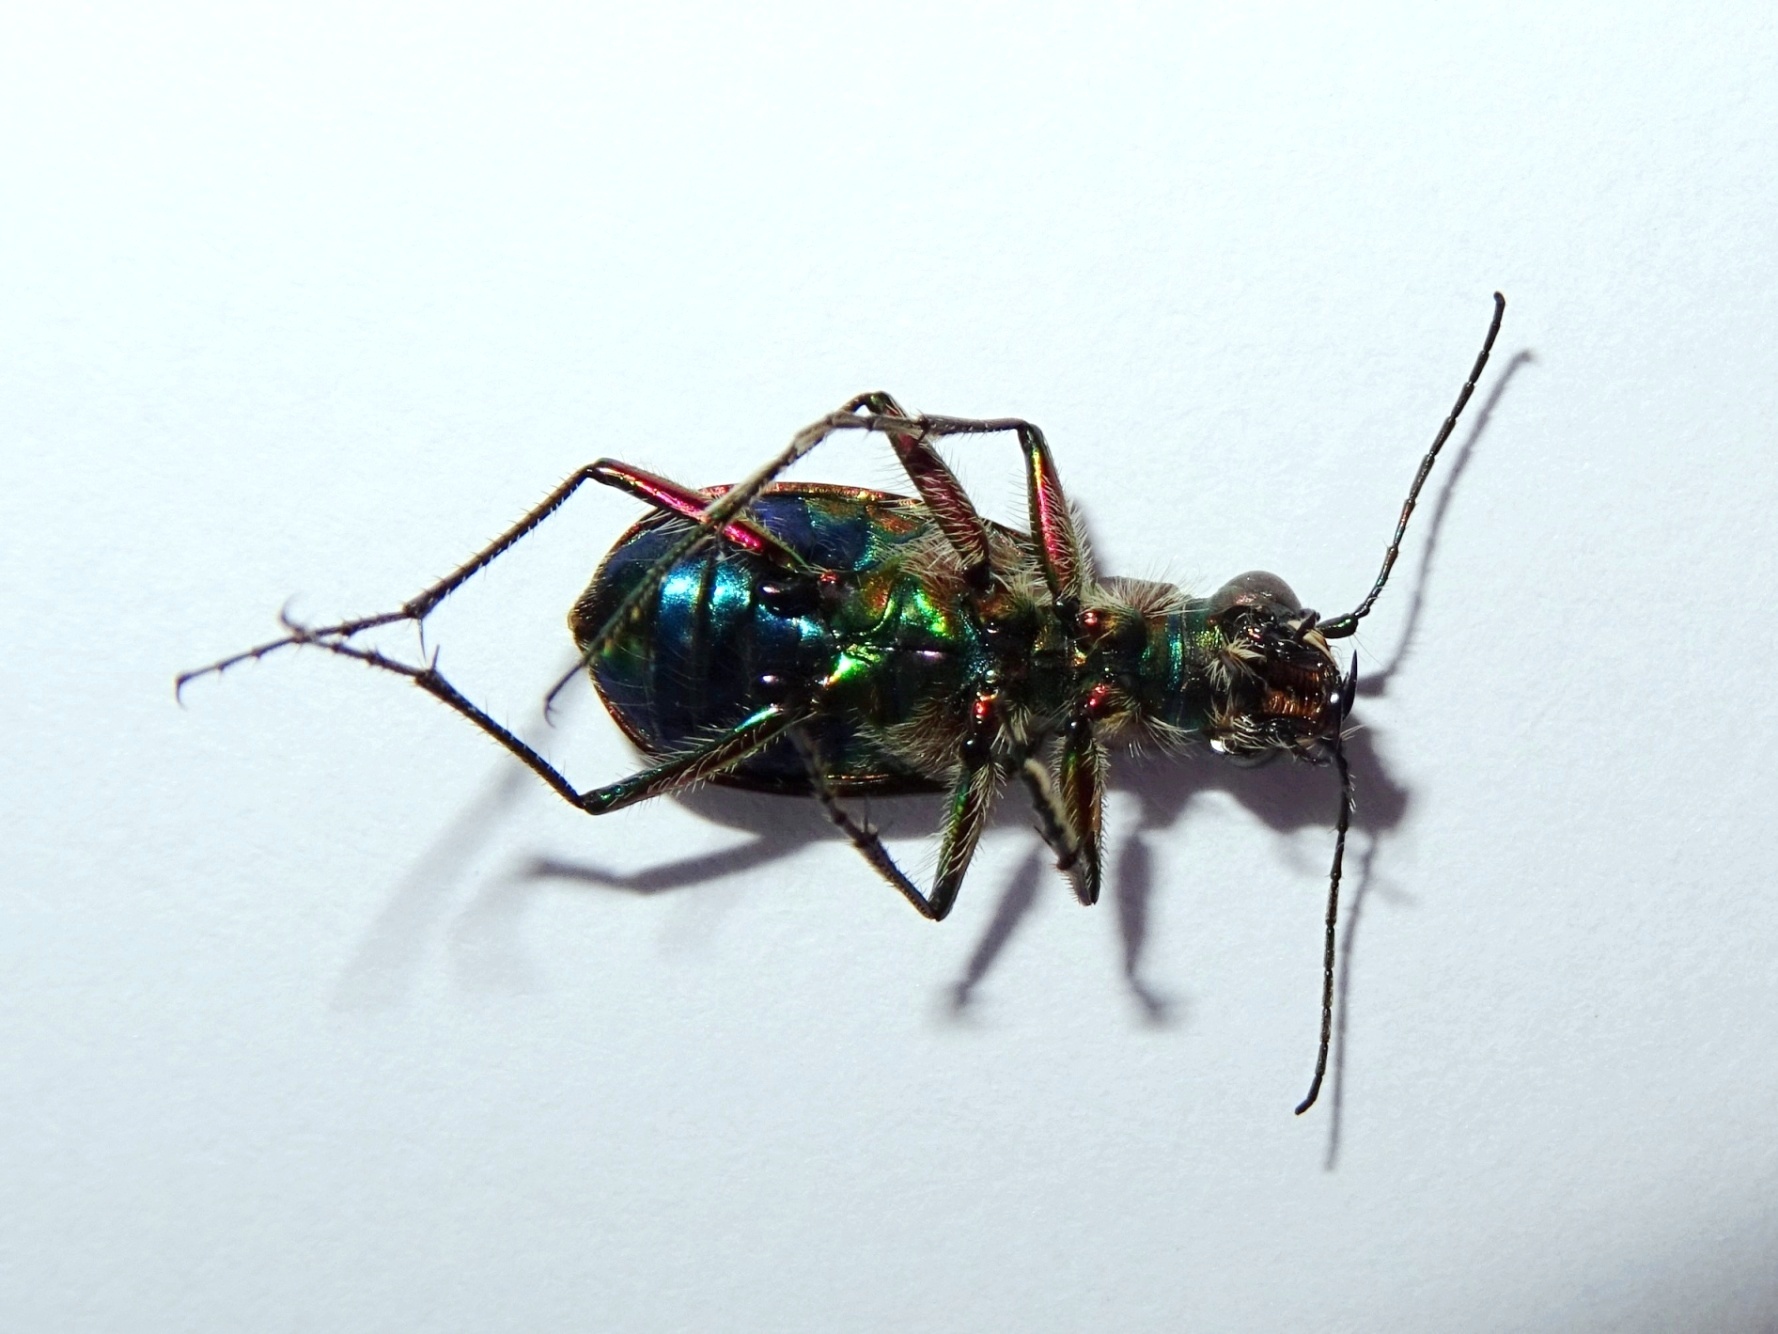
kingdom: Animalia
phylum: Arthropoda
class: Insecta
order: Coleoptera
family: Carabidae
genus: Cicindela
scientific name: Cicindela turkestanica
